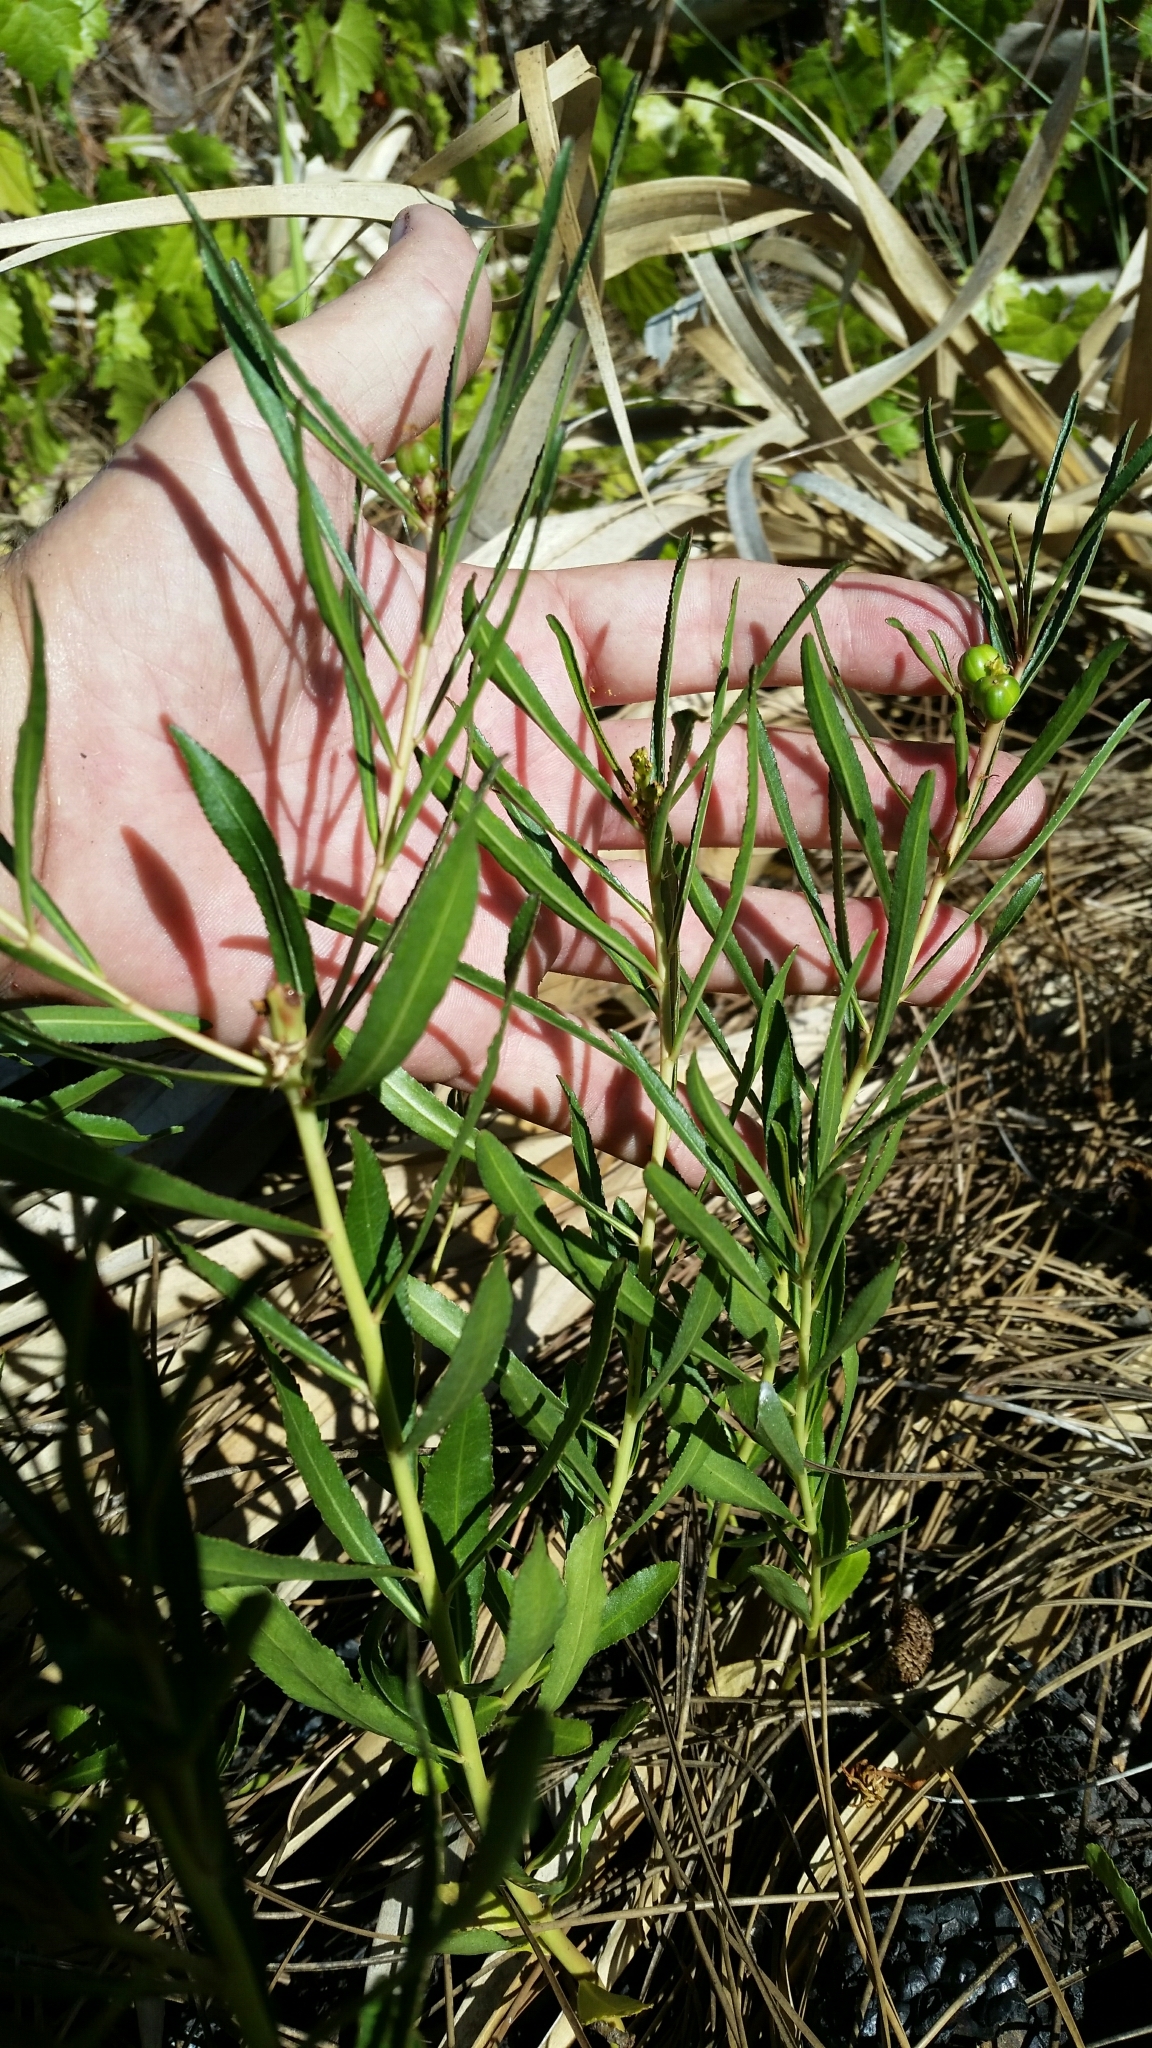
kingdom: Plantae
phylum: Tracheophyta
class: Magnoliopsida
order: Malpighiales
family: Euphorbiaceae
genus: Stillingia
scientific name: Stillingia sylvatica
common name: Queen's-delight
